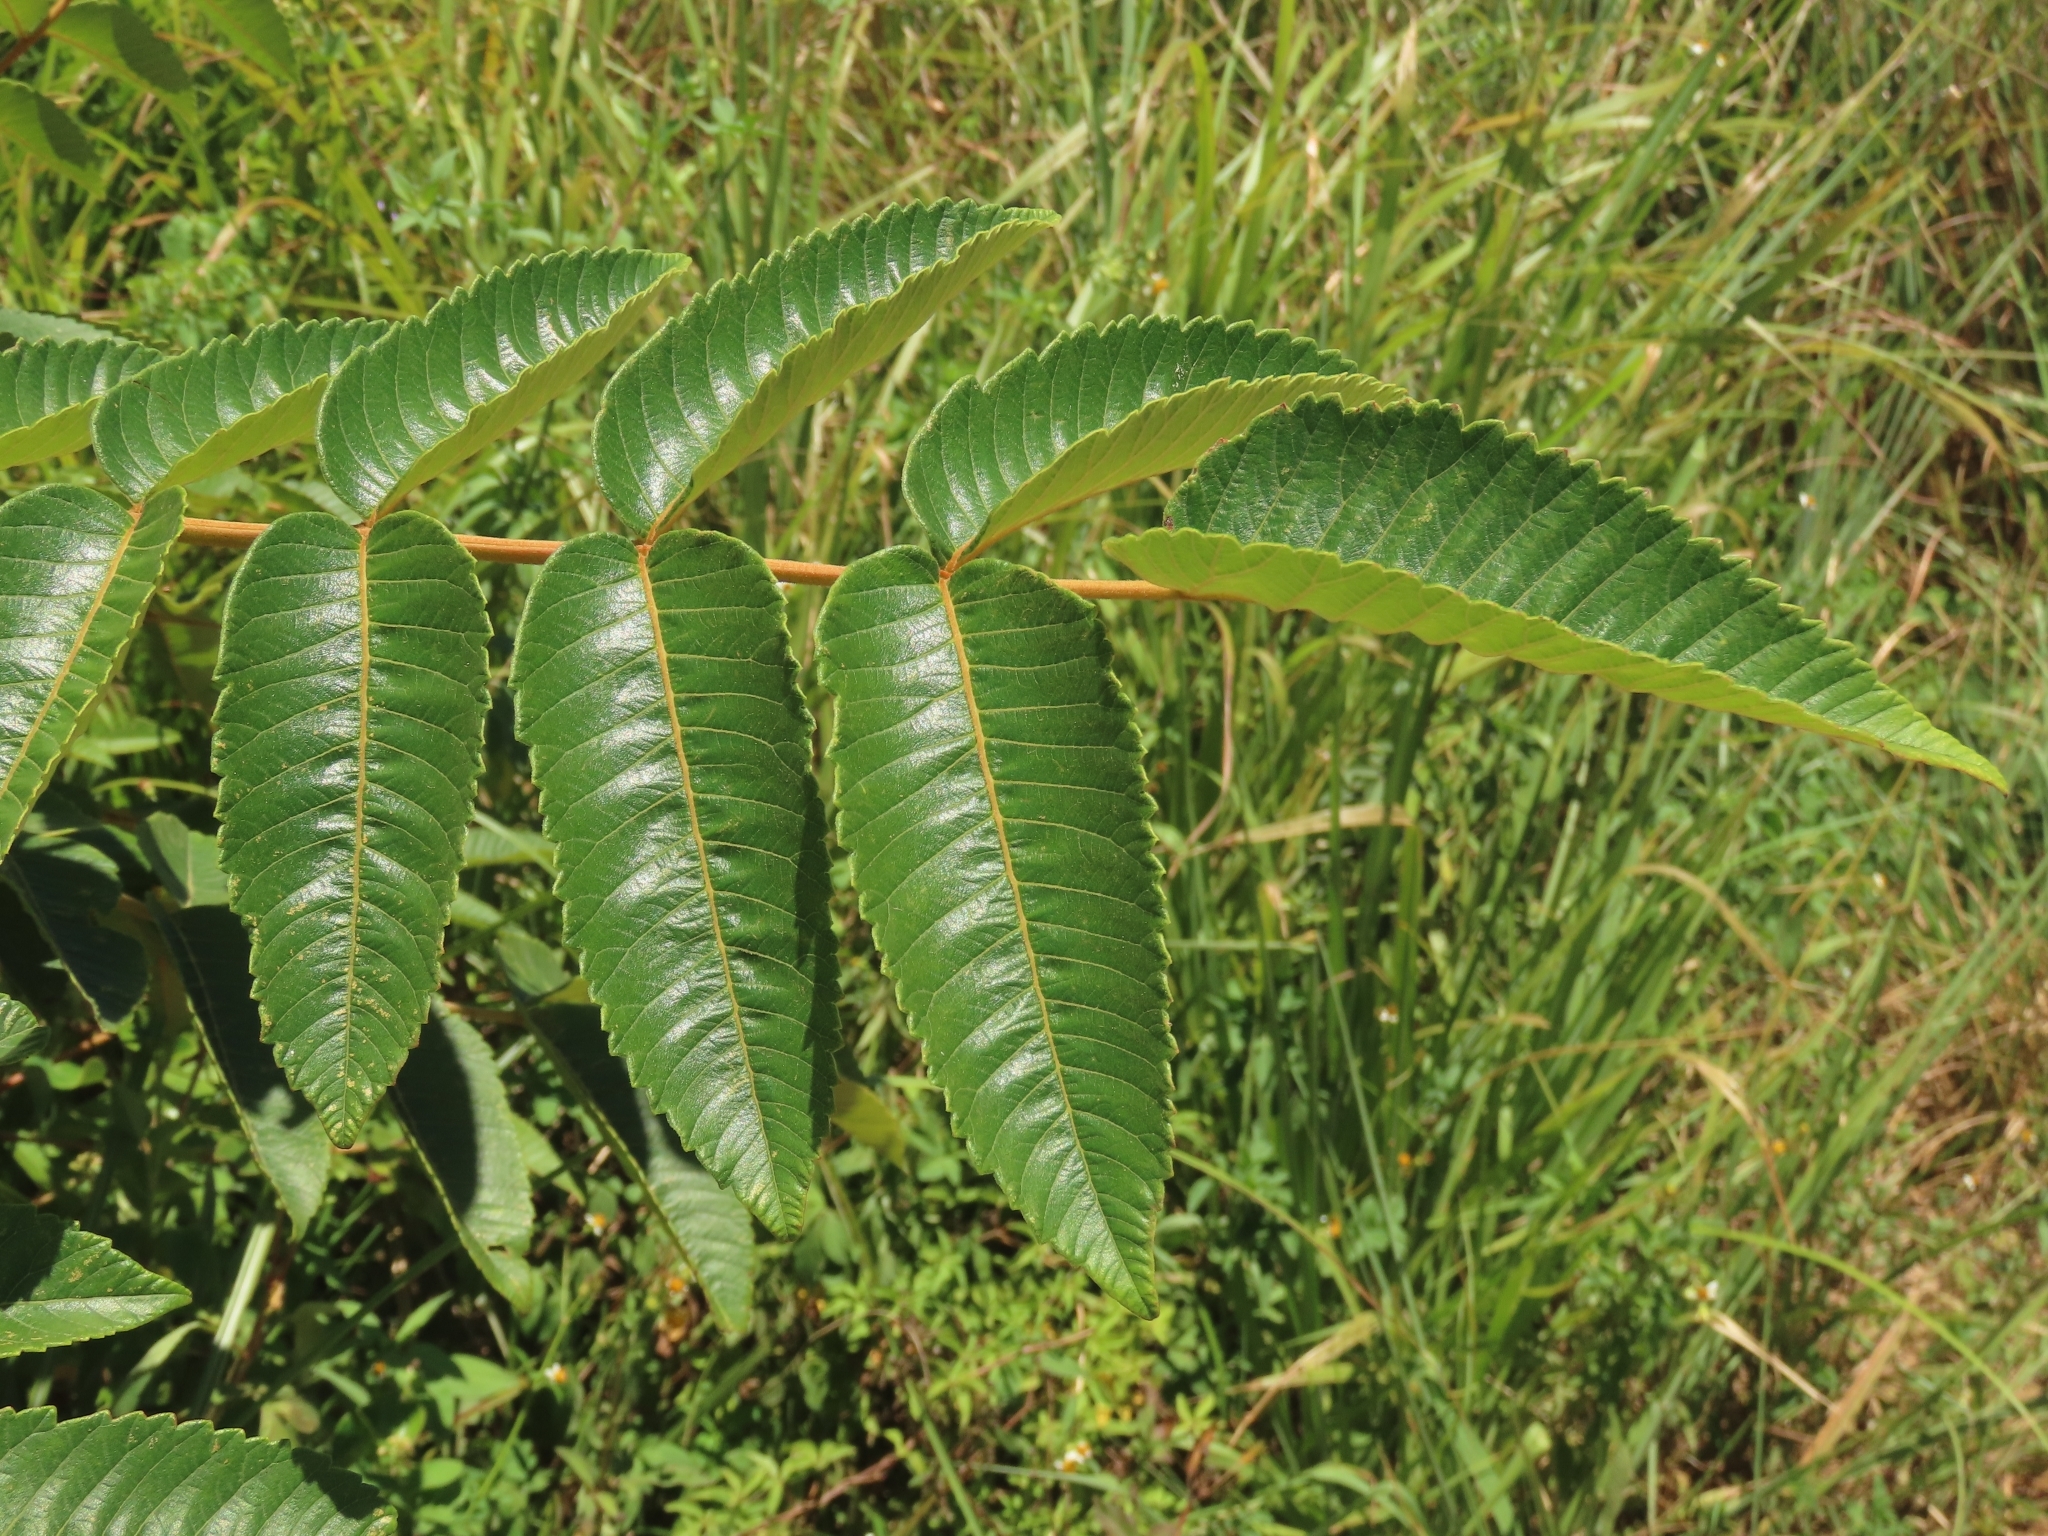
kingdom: Plantae
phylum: Tracheophyta
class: Magnoliopsida
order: Sapindales
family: Anacardiaceae
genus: Rhus
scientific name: Rhus chinensis
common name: Chinese gall
